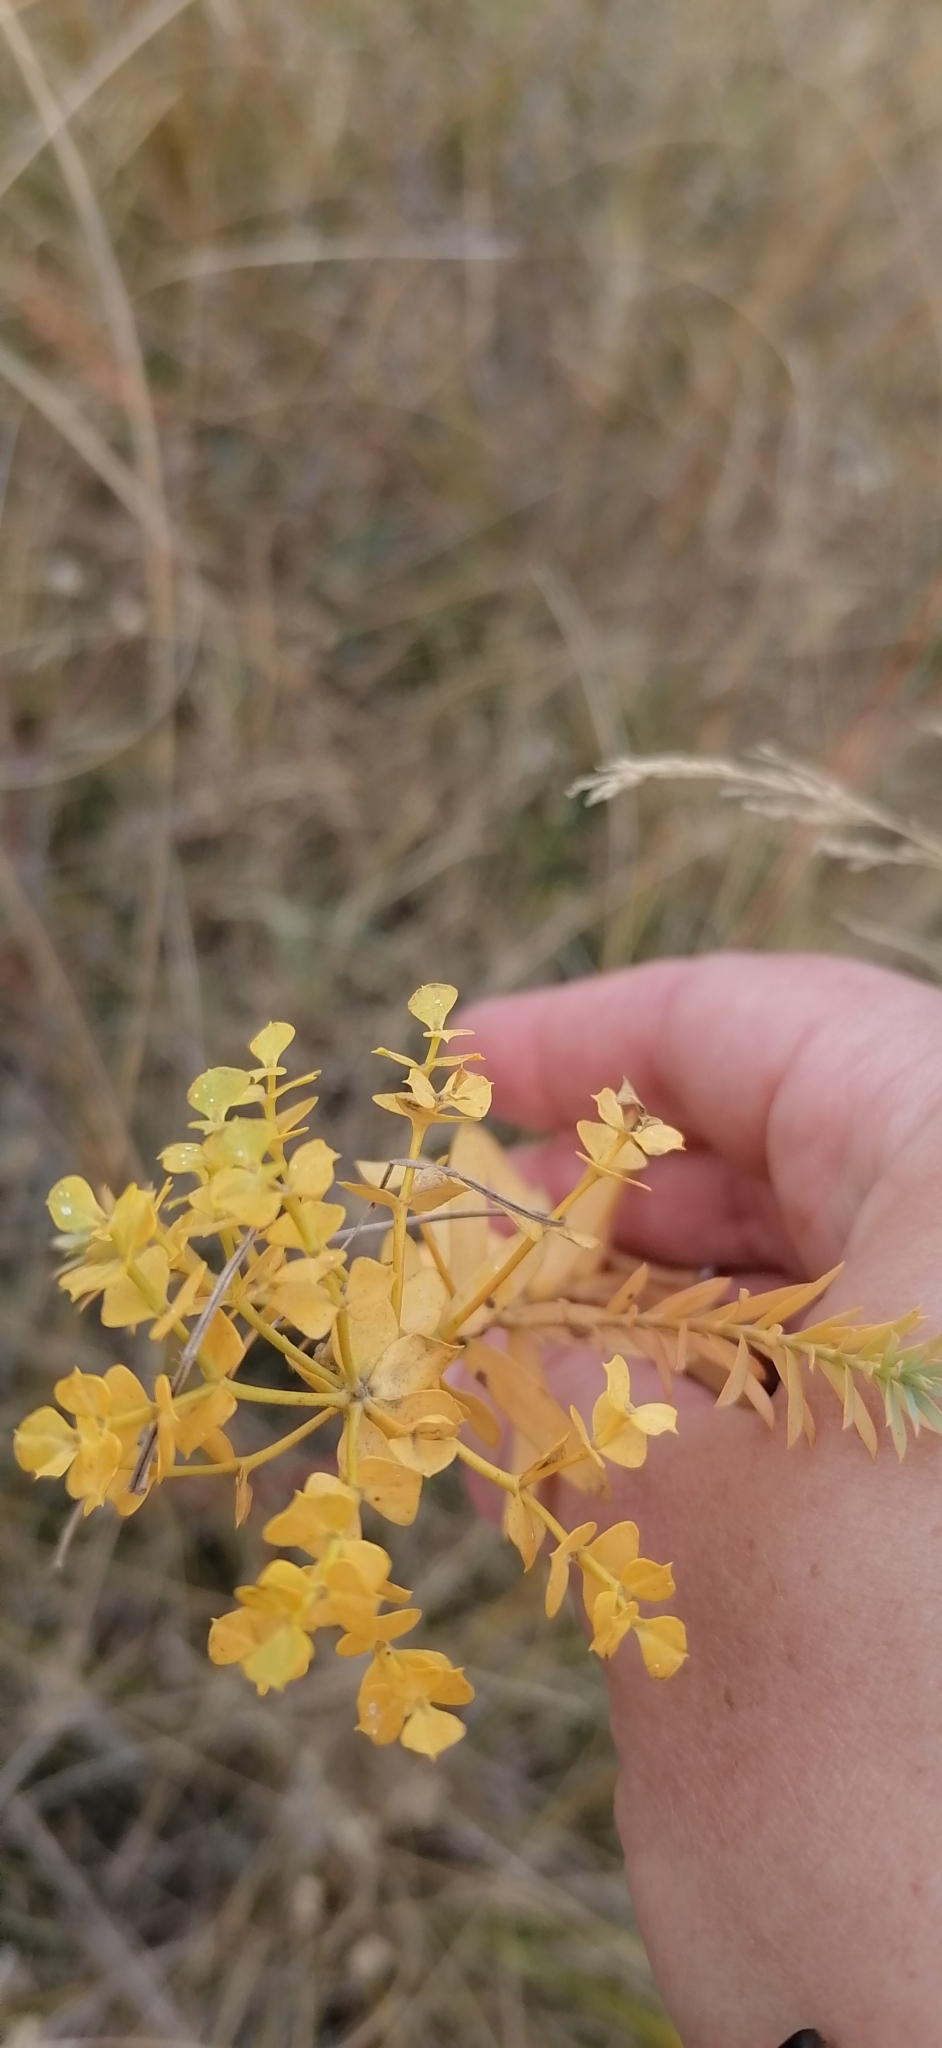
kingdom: Plantae
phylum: Tracheophyta
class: Magnoliopsida
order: Malpighiales
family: Euphorbiaceae
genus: Euphorbia
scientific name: Euphorbia seguieriana
